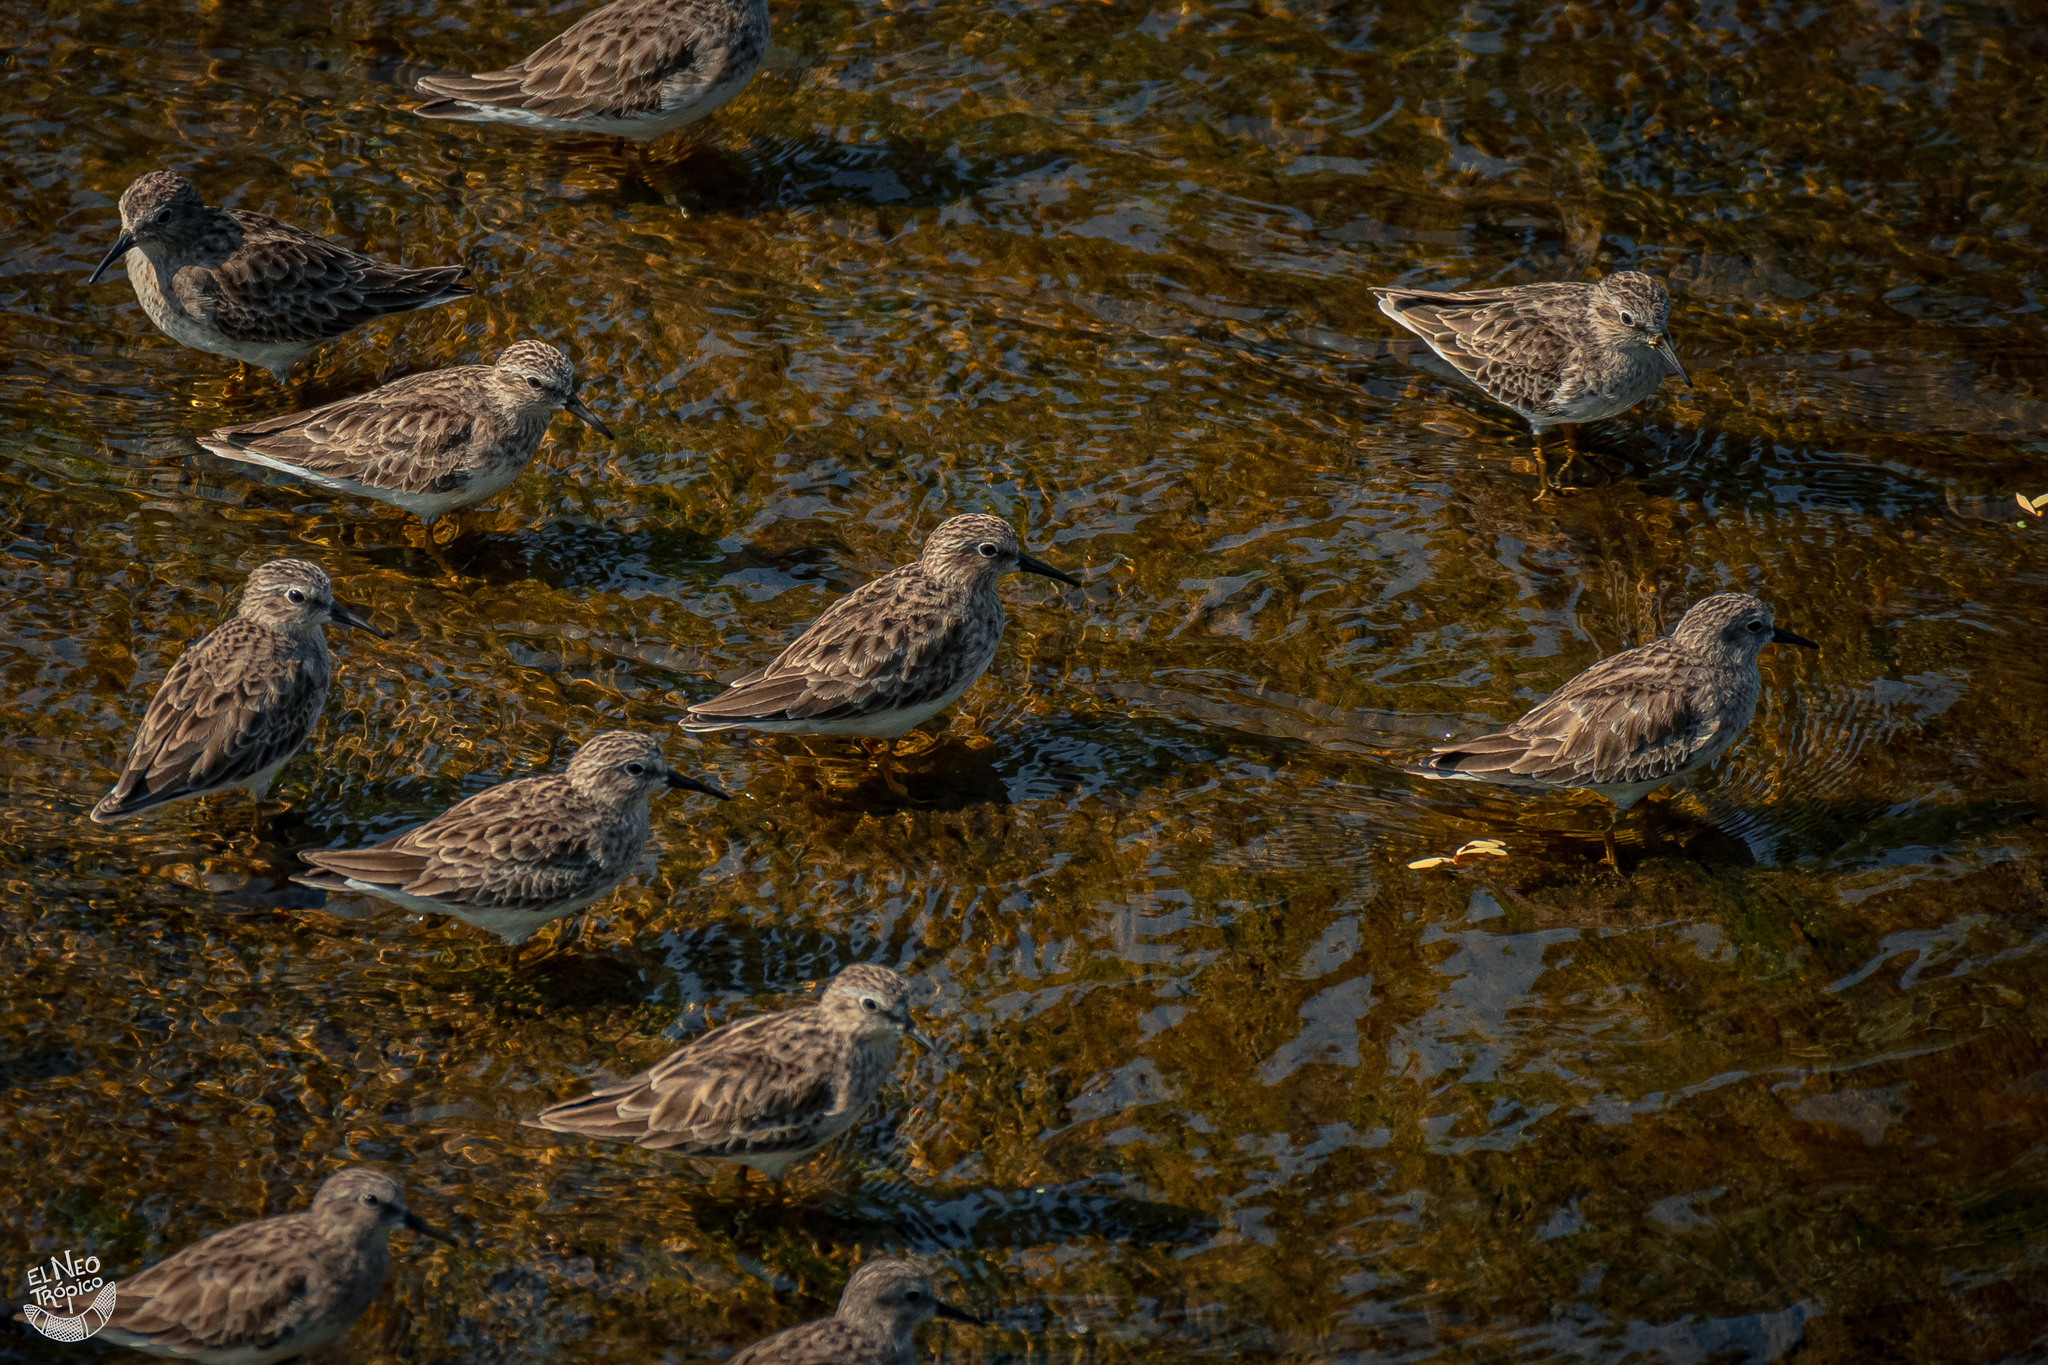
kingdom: Animalia
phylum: Chordata
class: Aves
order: Charadriiformes
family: Scolopacidae
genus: Calidris
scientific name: Calidris minutilla
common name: Least sandpiper
